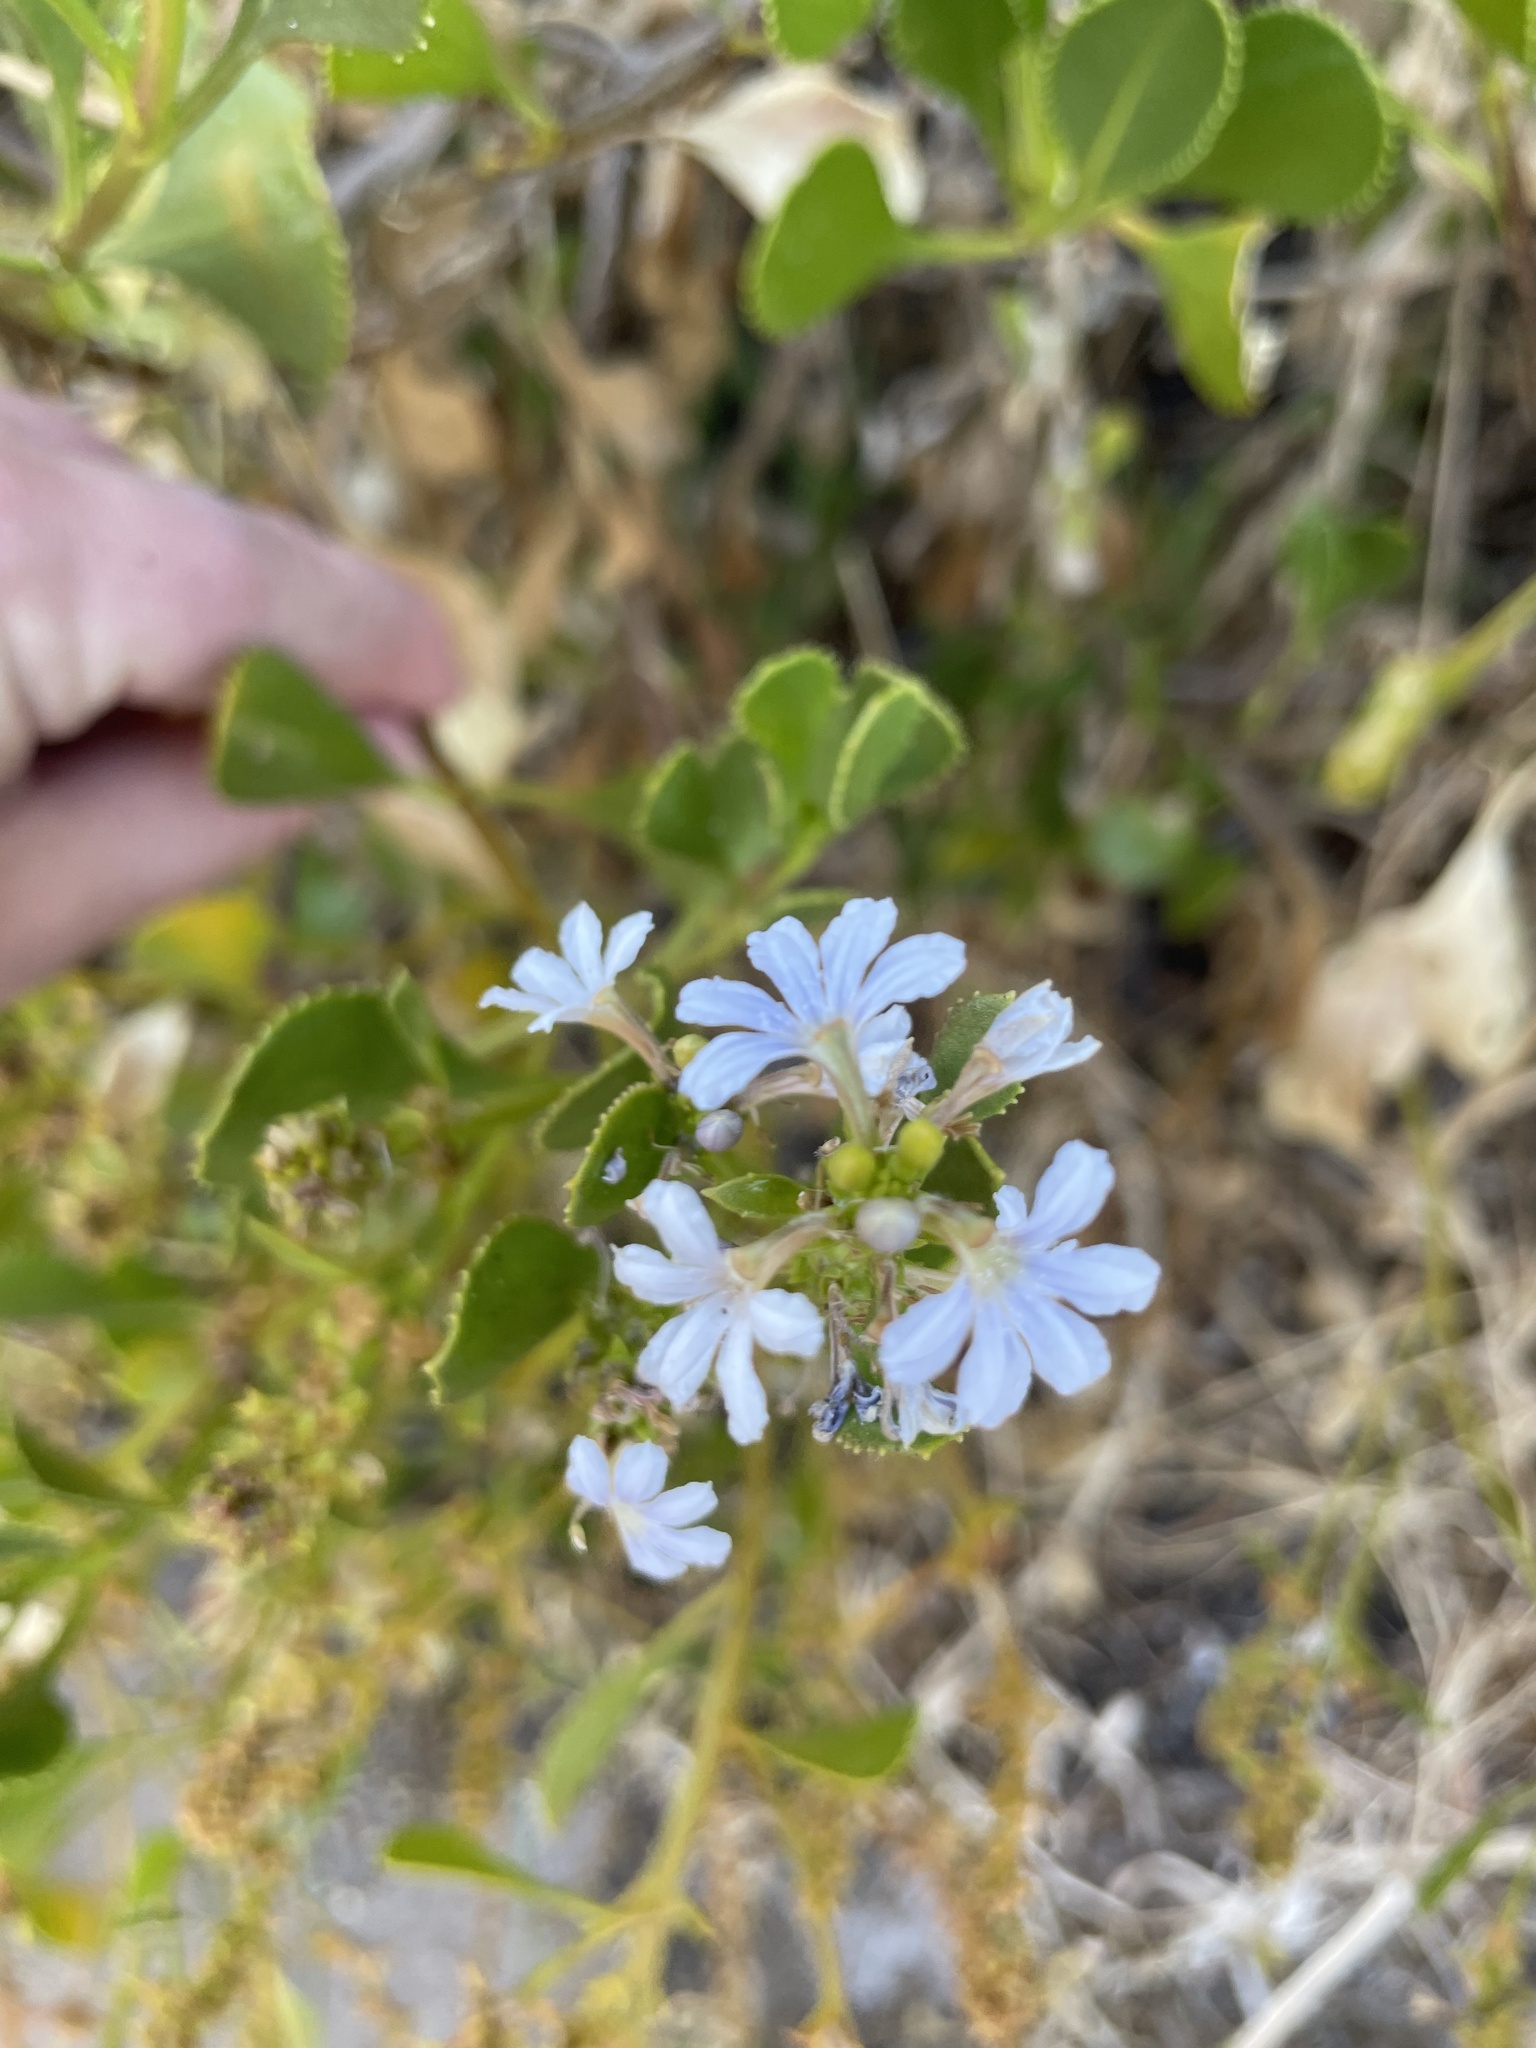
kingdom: Plantae
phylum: Tracheophyta
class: Magnoliopsida
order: Asterales
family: Goodeniaceae
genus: Scaevola
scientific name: Scaevola crassifolia
